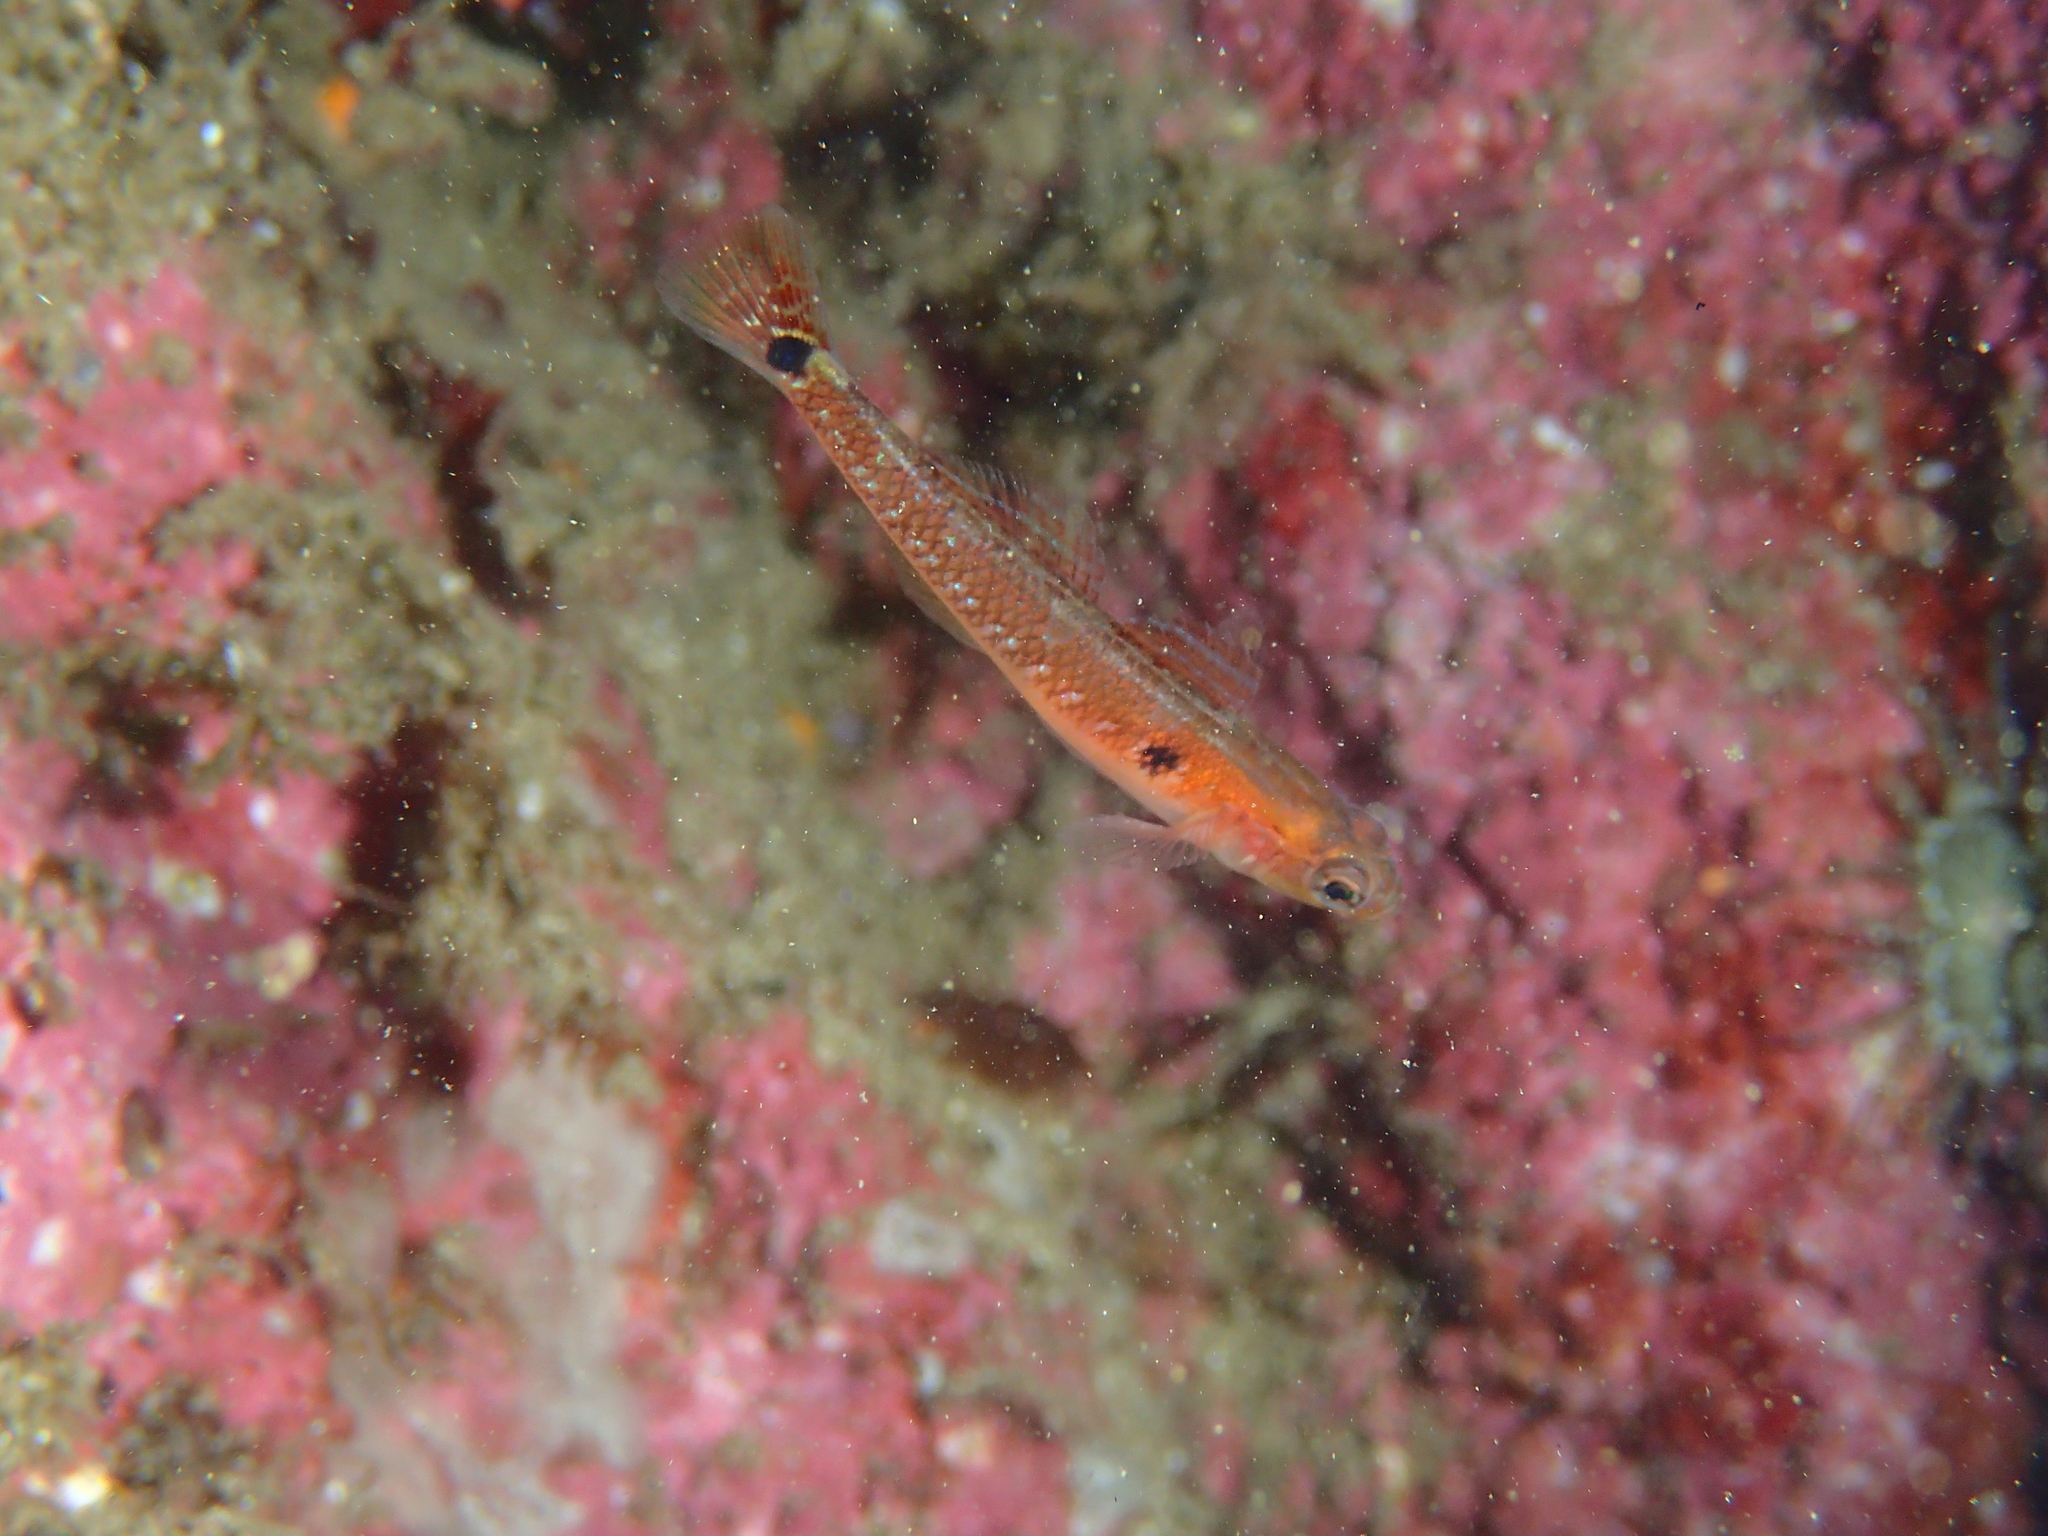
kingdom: Animalia
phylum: Chordata
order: Perciformes
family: Gobiidae
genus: Gobiusculus
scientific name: Gobiusculus flavescens
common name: Two-spotted goby
